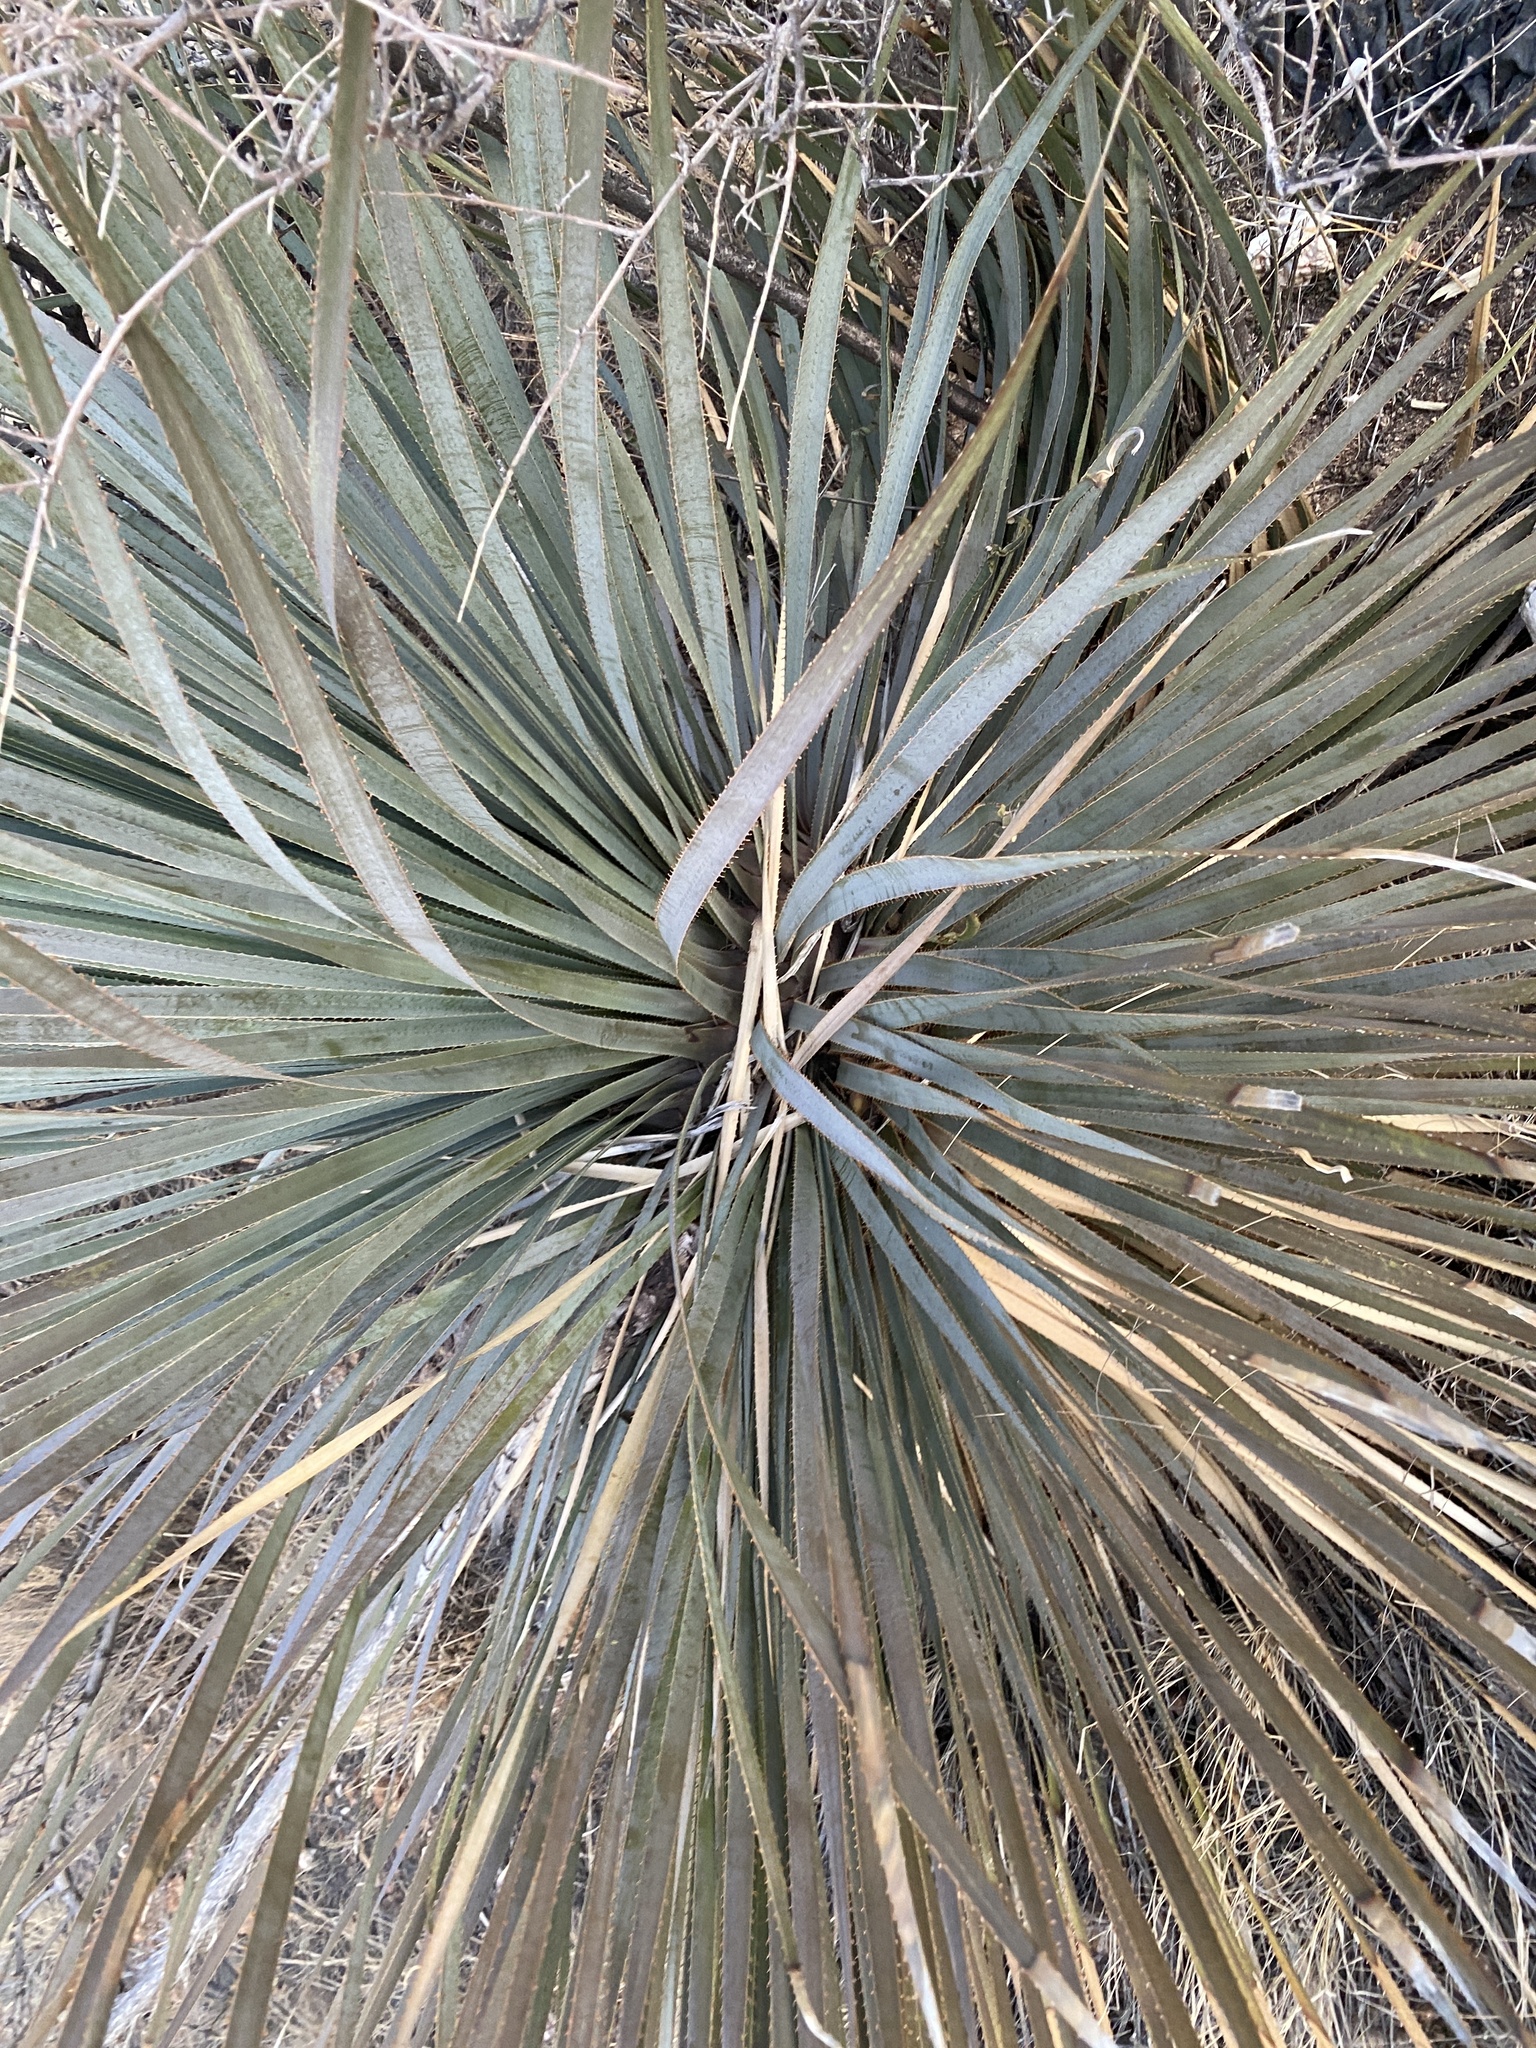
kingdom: Plantae
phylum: Tracheophyta
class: Liliopsida
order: Asparagales
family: Asparagaceae
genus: Dasylirion
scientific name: Dasylirion wheeleri
